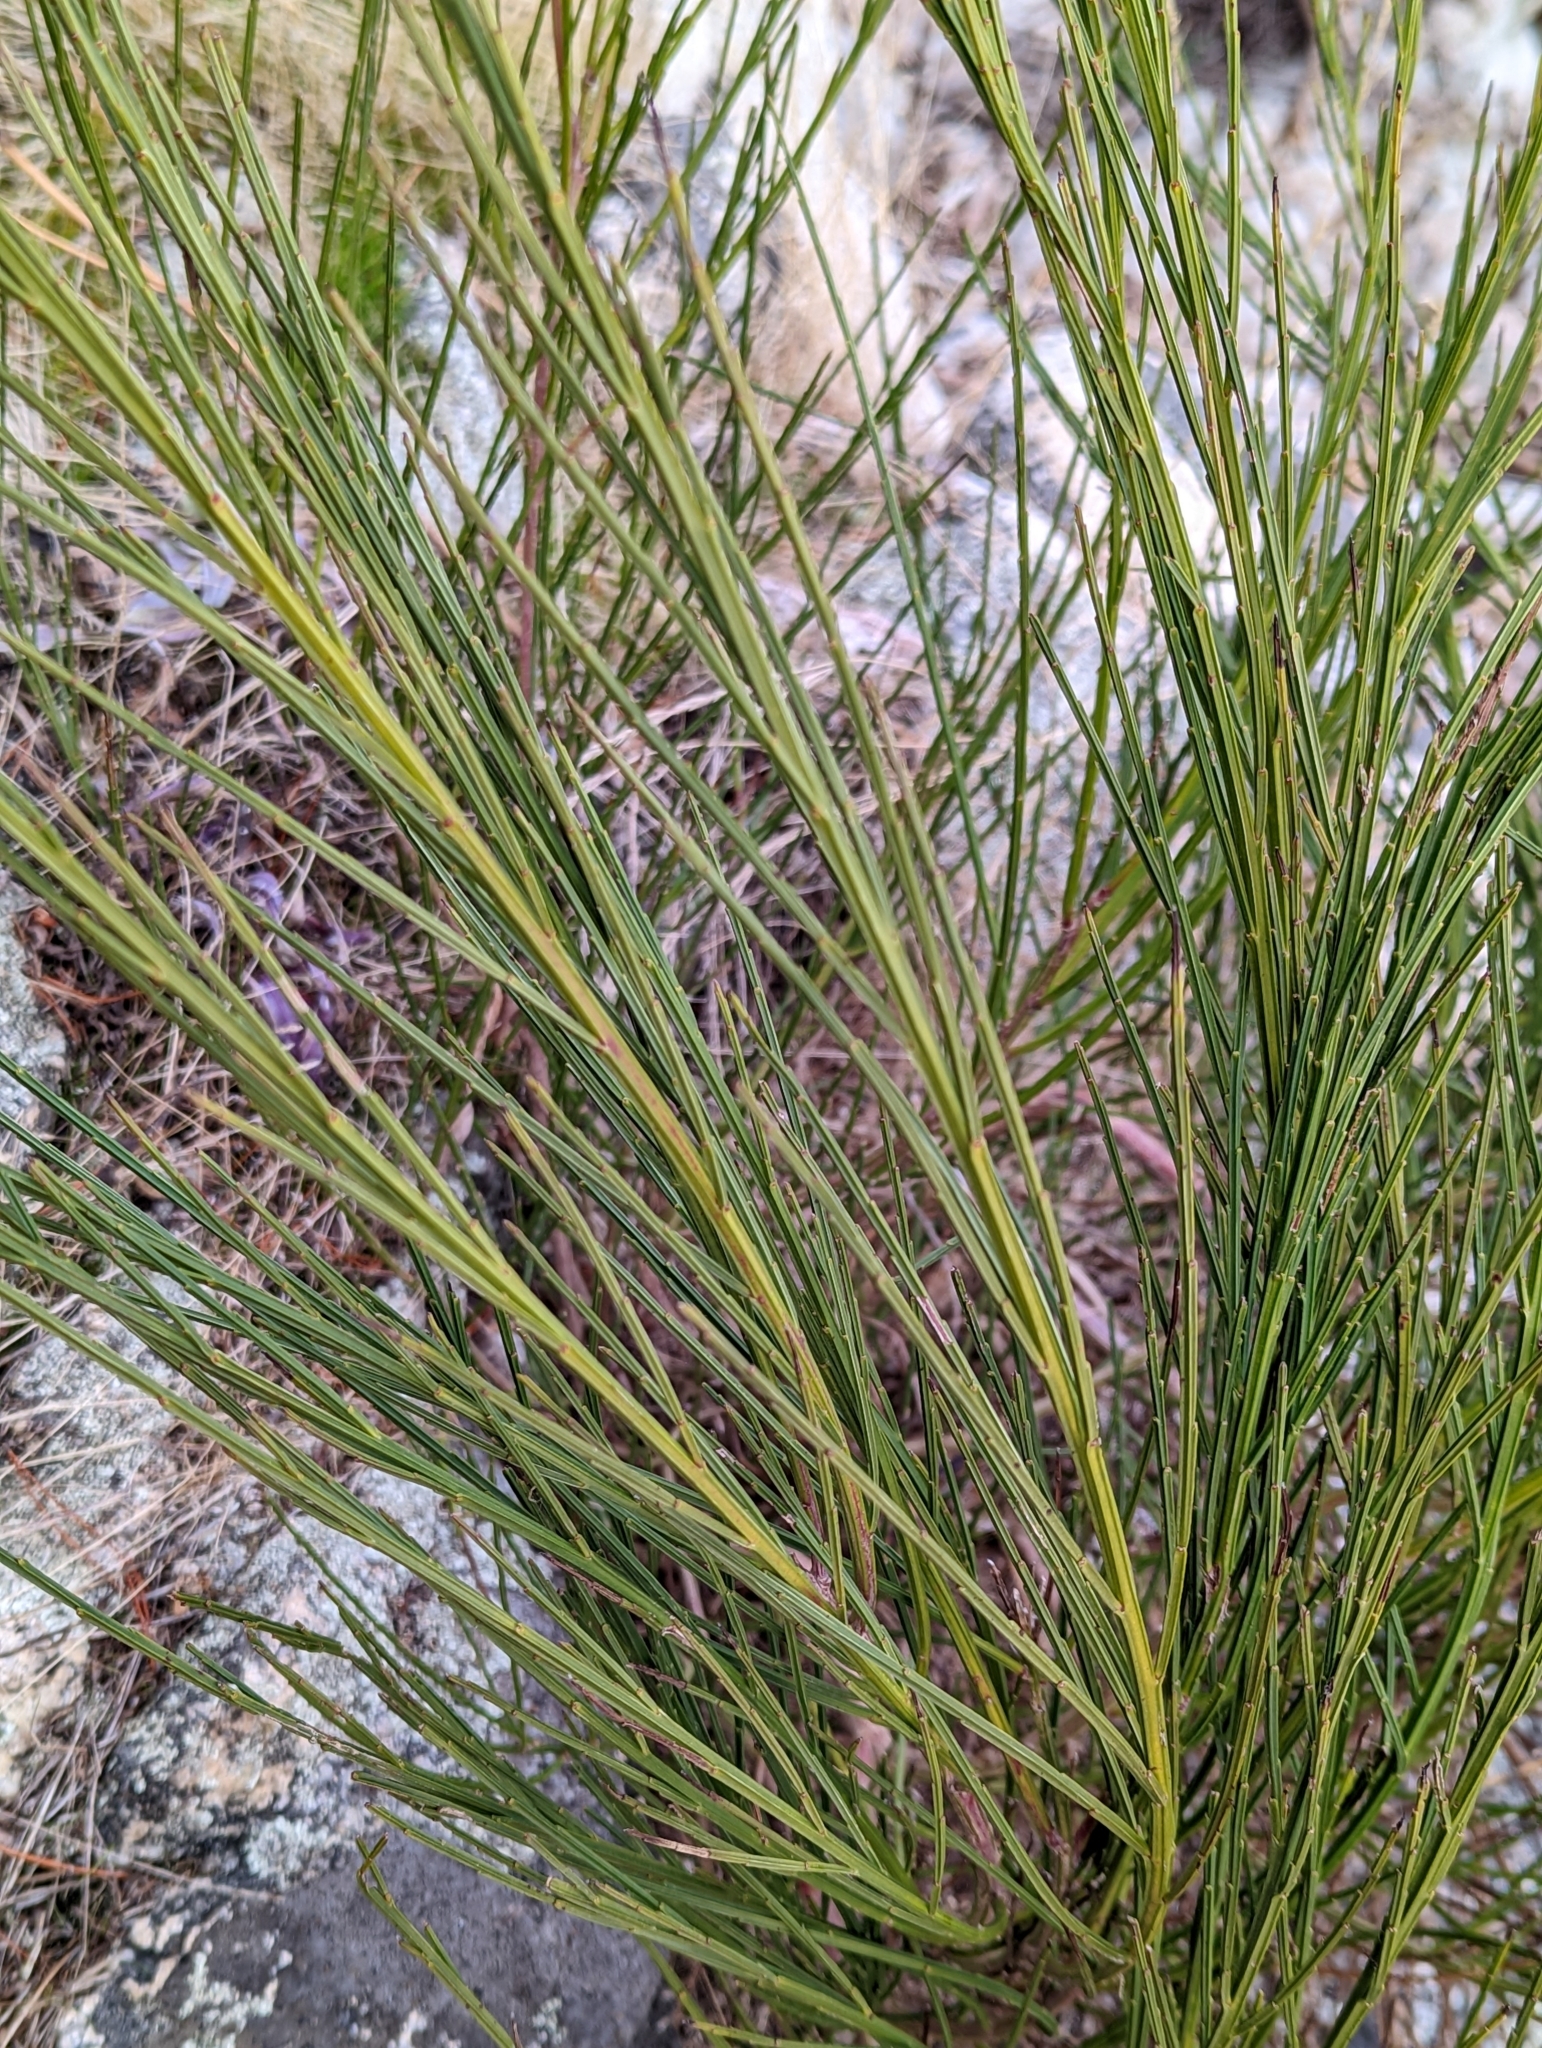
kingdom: Plantae
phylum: Tracheophyta
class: Magnoliopsida
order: Fabales
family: Fabaceae
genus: Cytisus
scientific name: Cytisus scoparius
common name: Scotch broom
